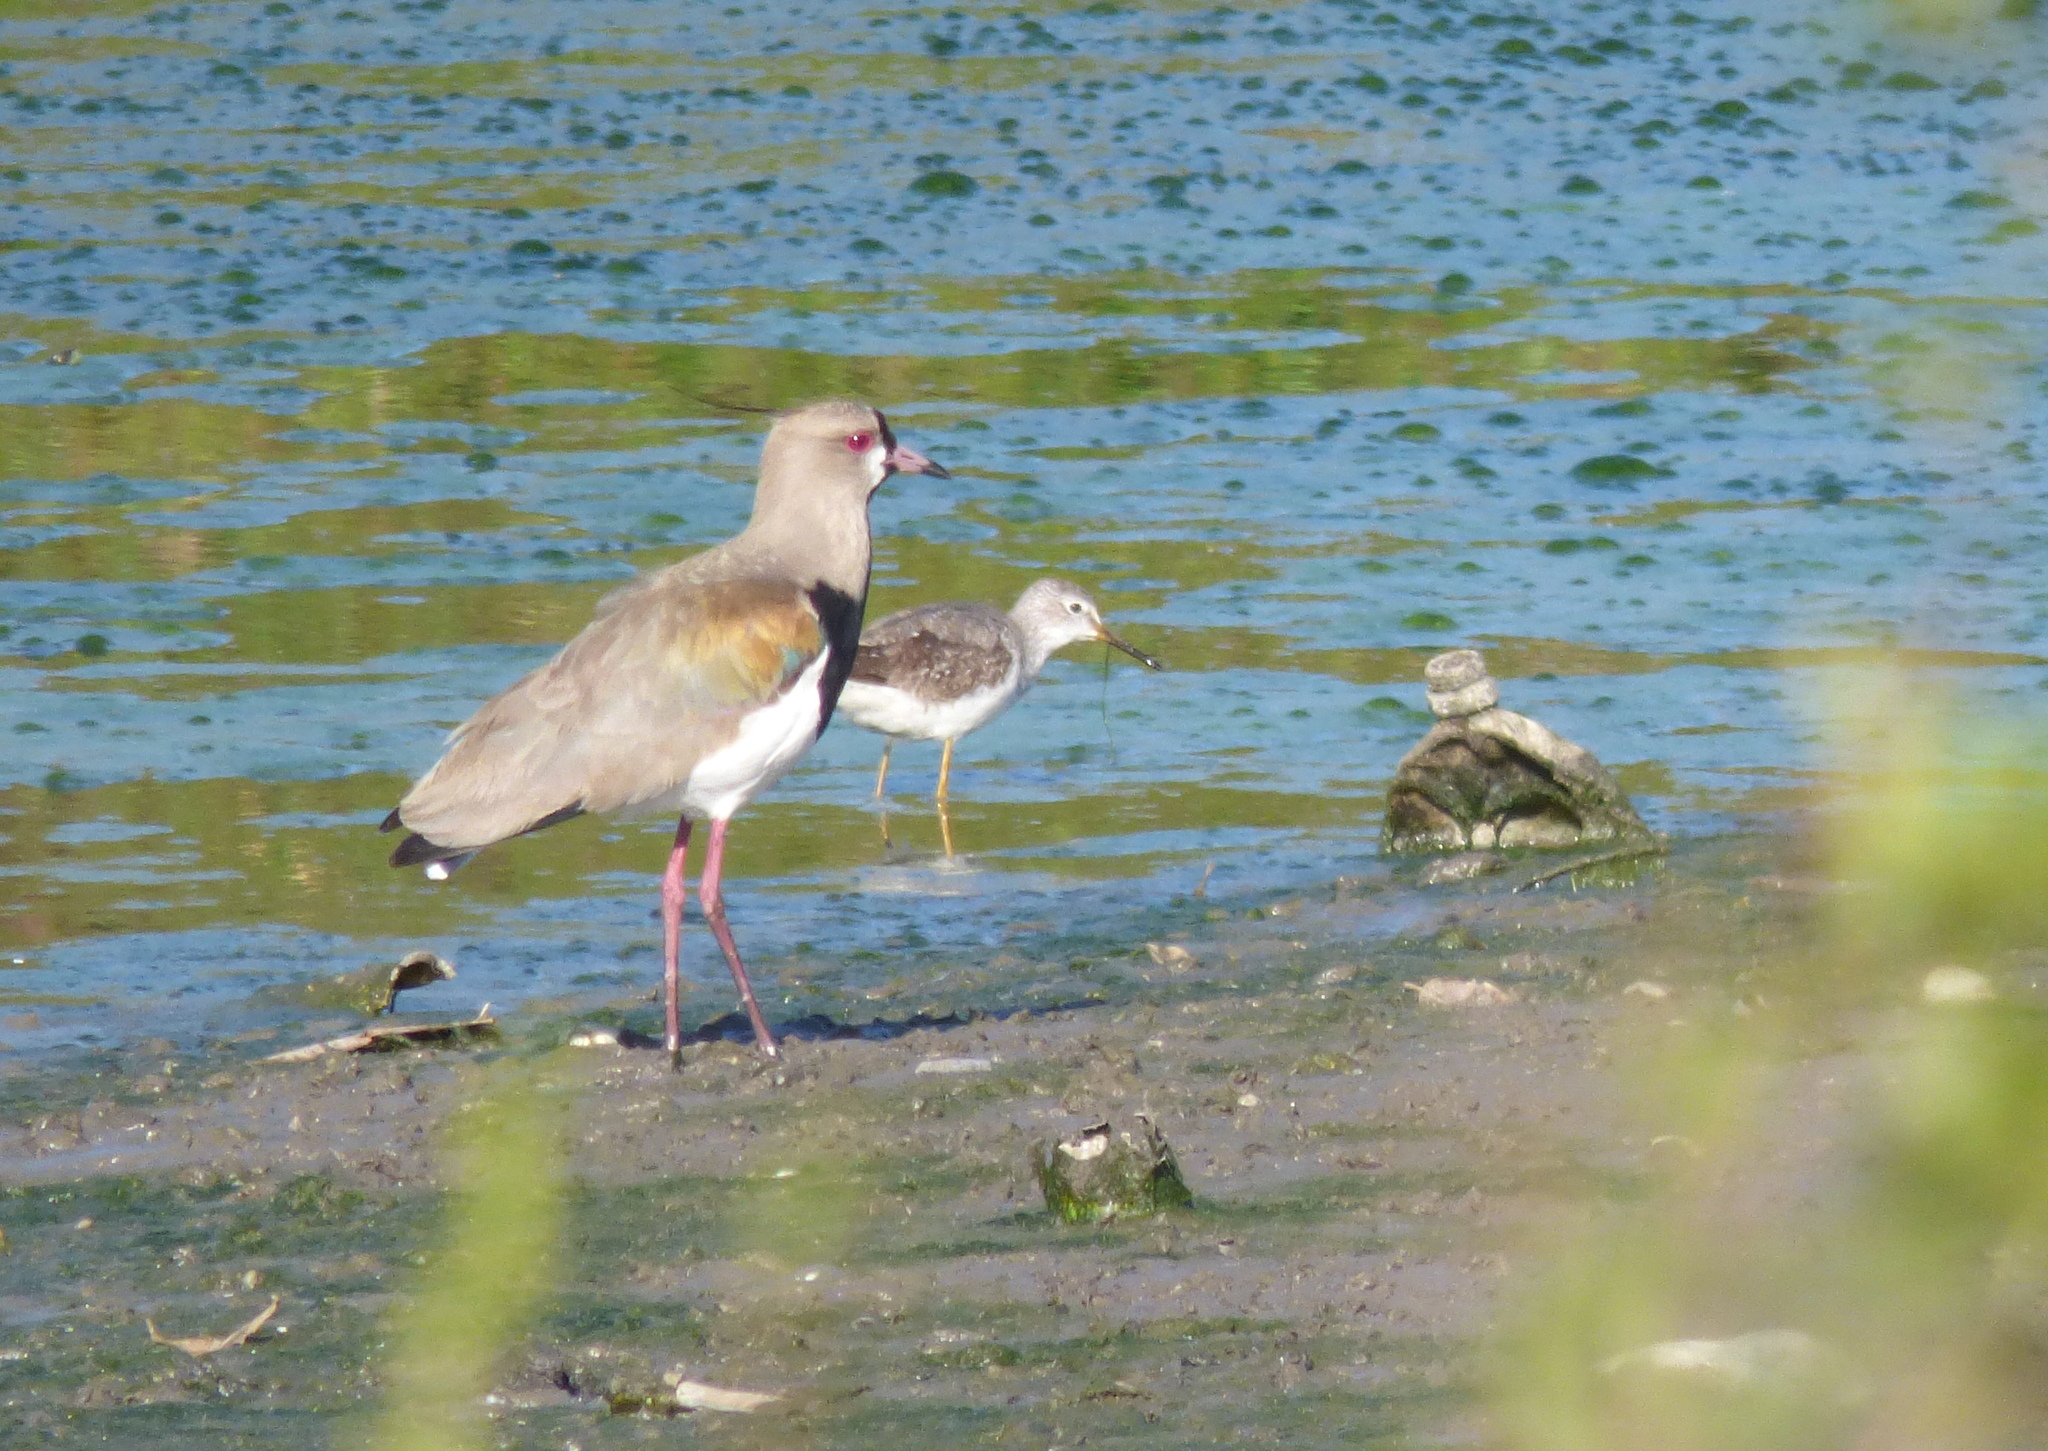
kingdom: Animalia
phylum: Chordata
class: Aves
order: Charadriiformes
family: Charadriidae
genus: Vanellus
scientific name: Vanellus chilensis
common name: Southern lapwing
